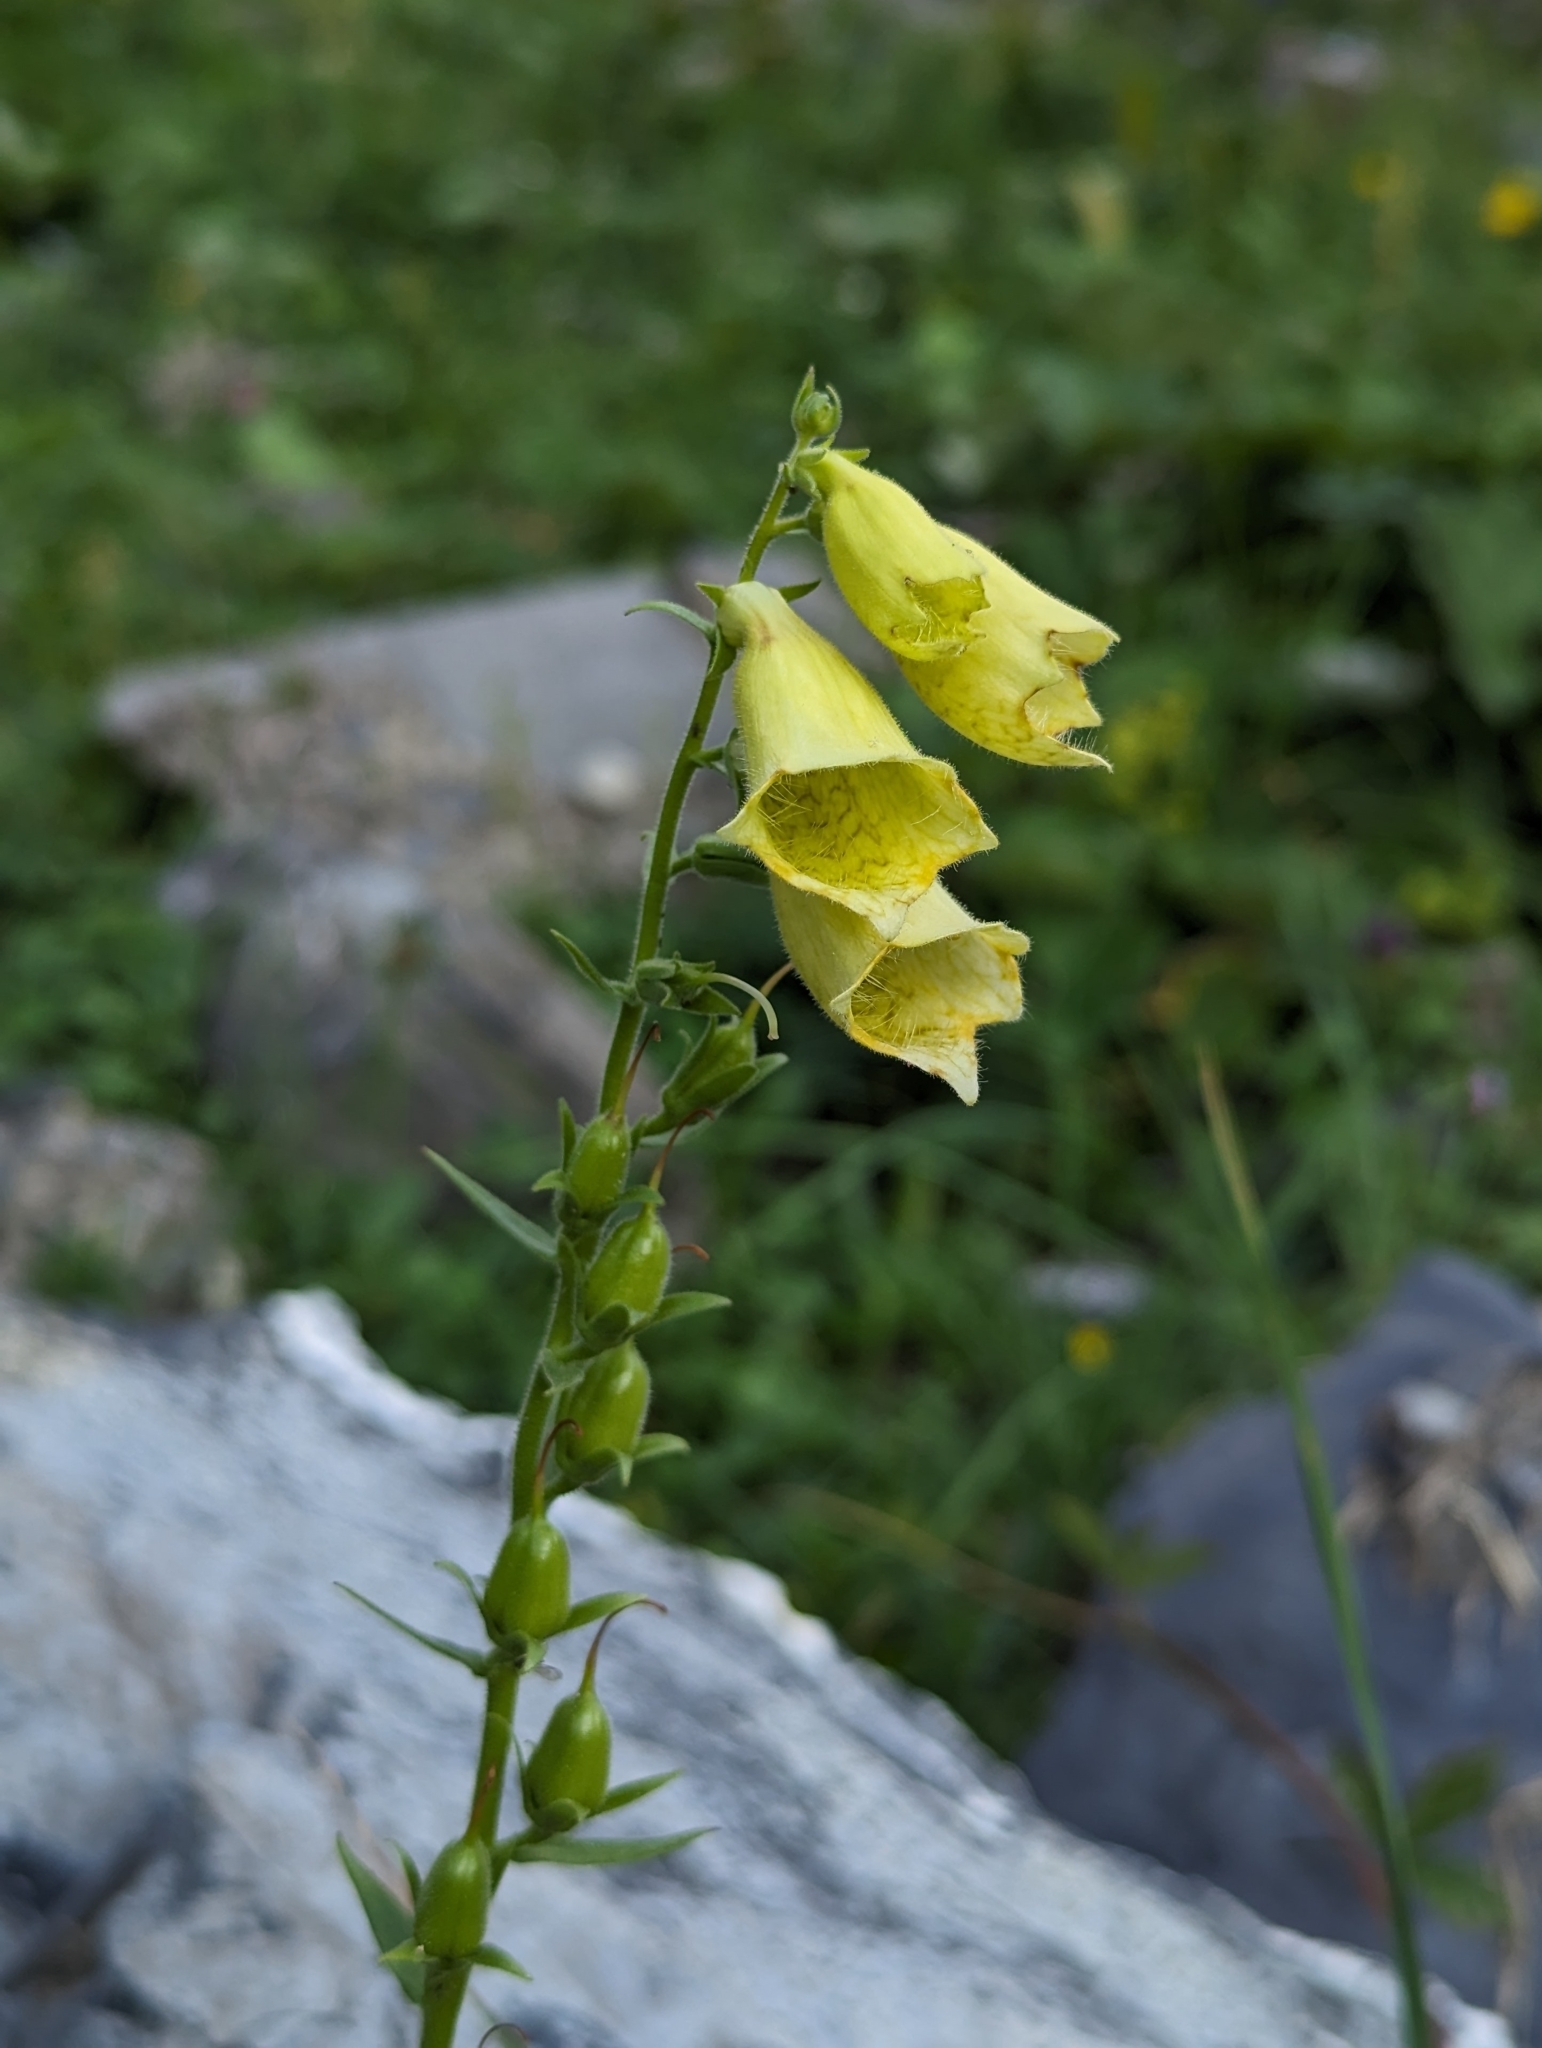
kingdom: Plantae
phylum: Tracheophyta
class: Magnoliopsida
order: Lamiales
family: Plantaginaceae
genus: Digitalis
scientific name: Digitalis grandiflora
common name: Yellow foxglove
